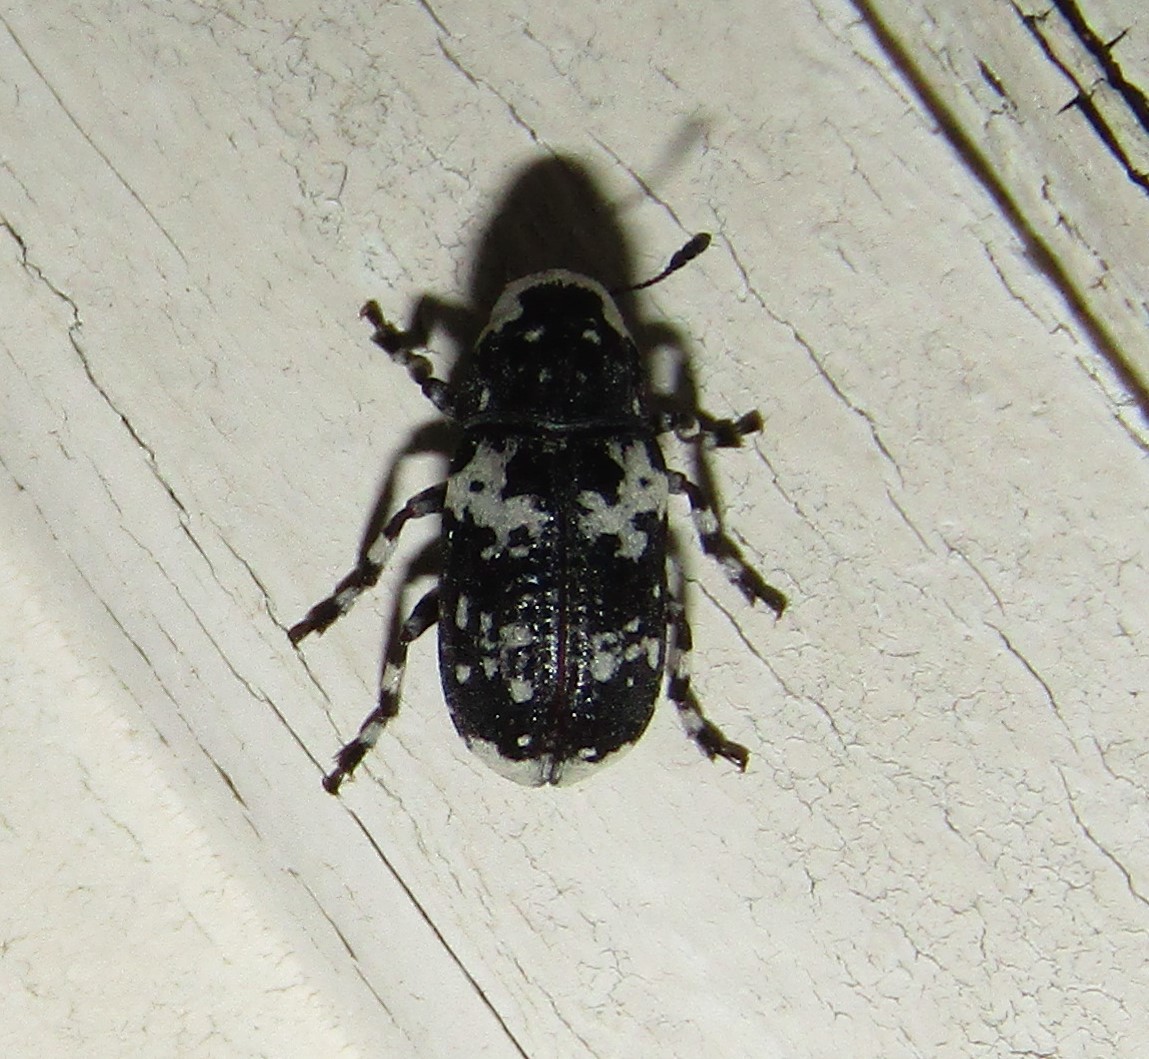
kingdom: Animalia
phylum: Arthropoda
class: Insecta
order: Coleoptera
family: Anthribidae
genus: Euparius
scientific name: Euparius lugubris
